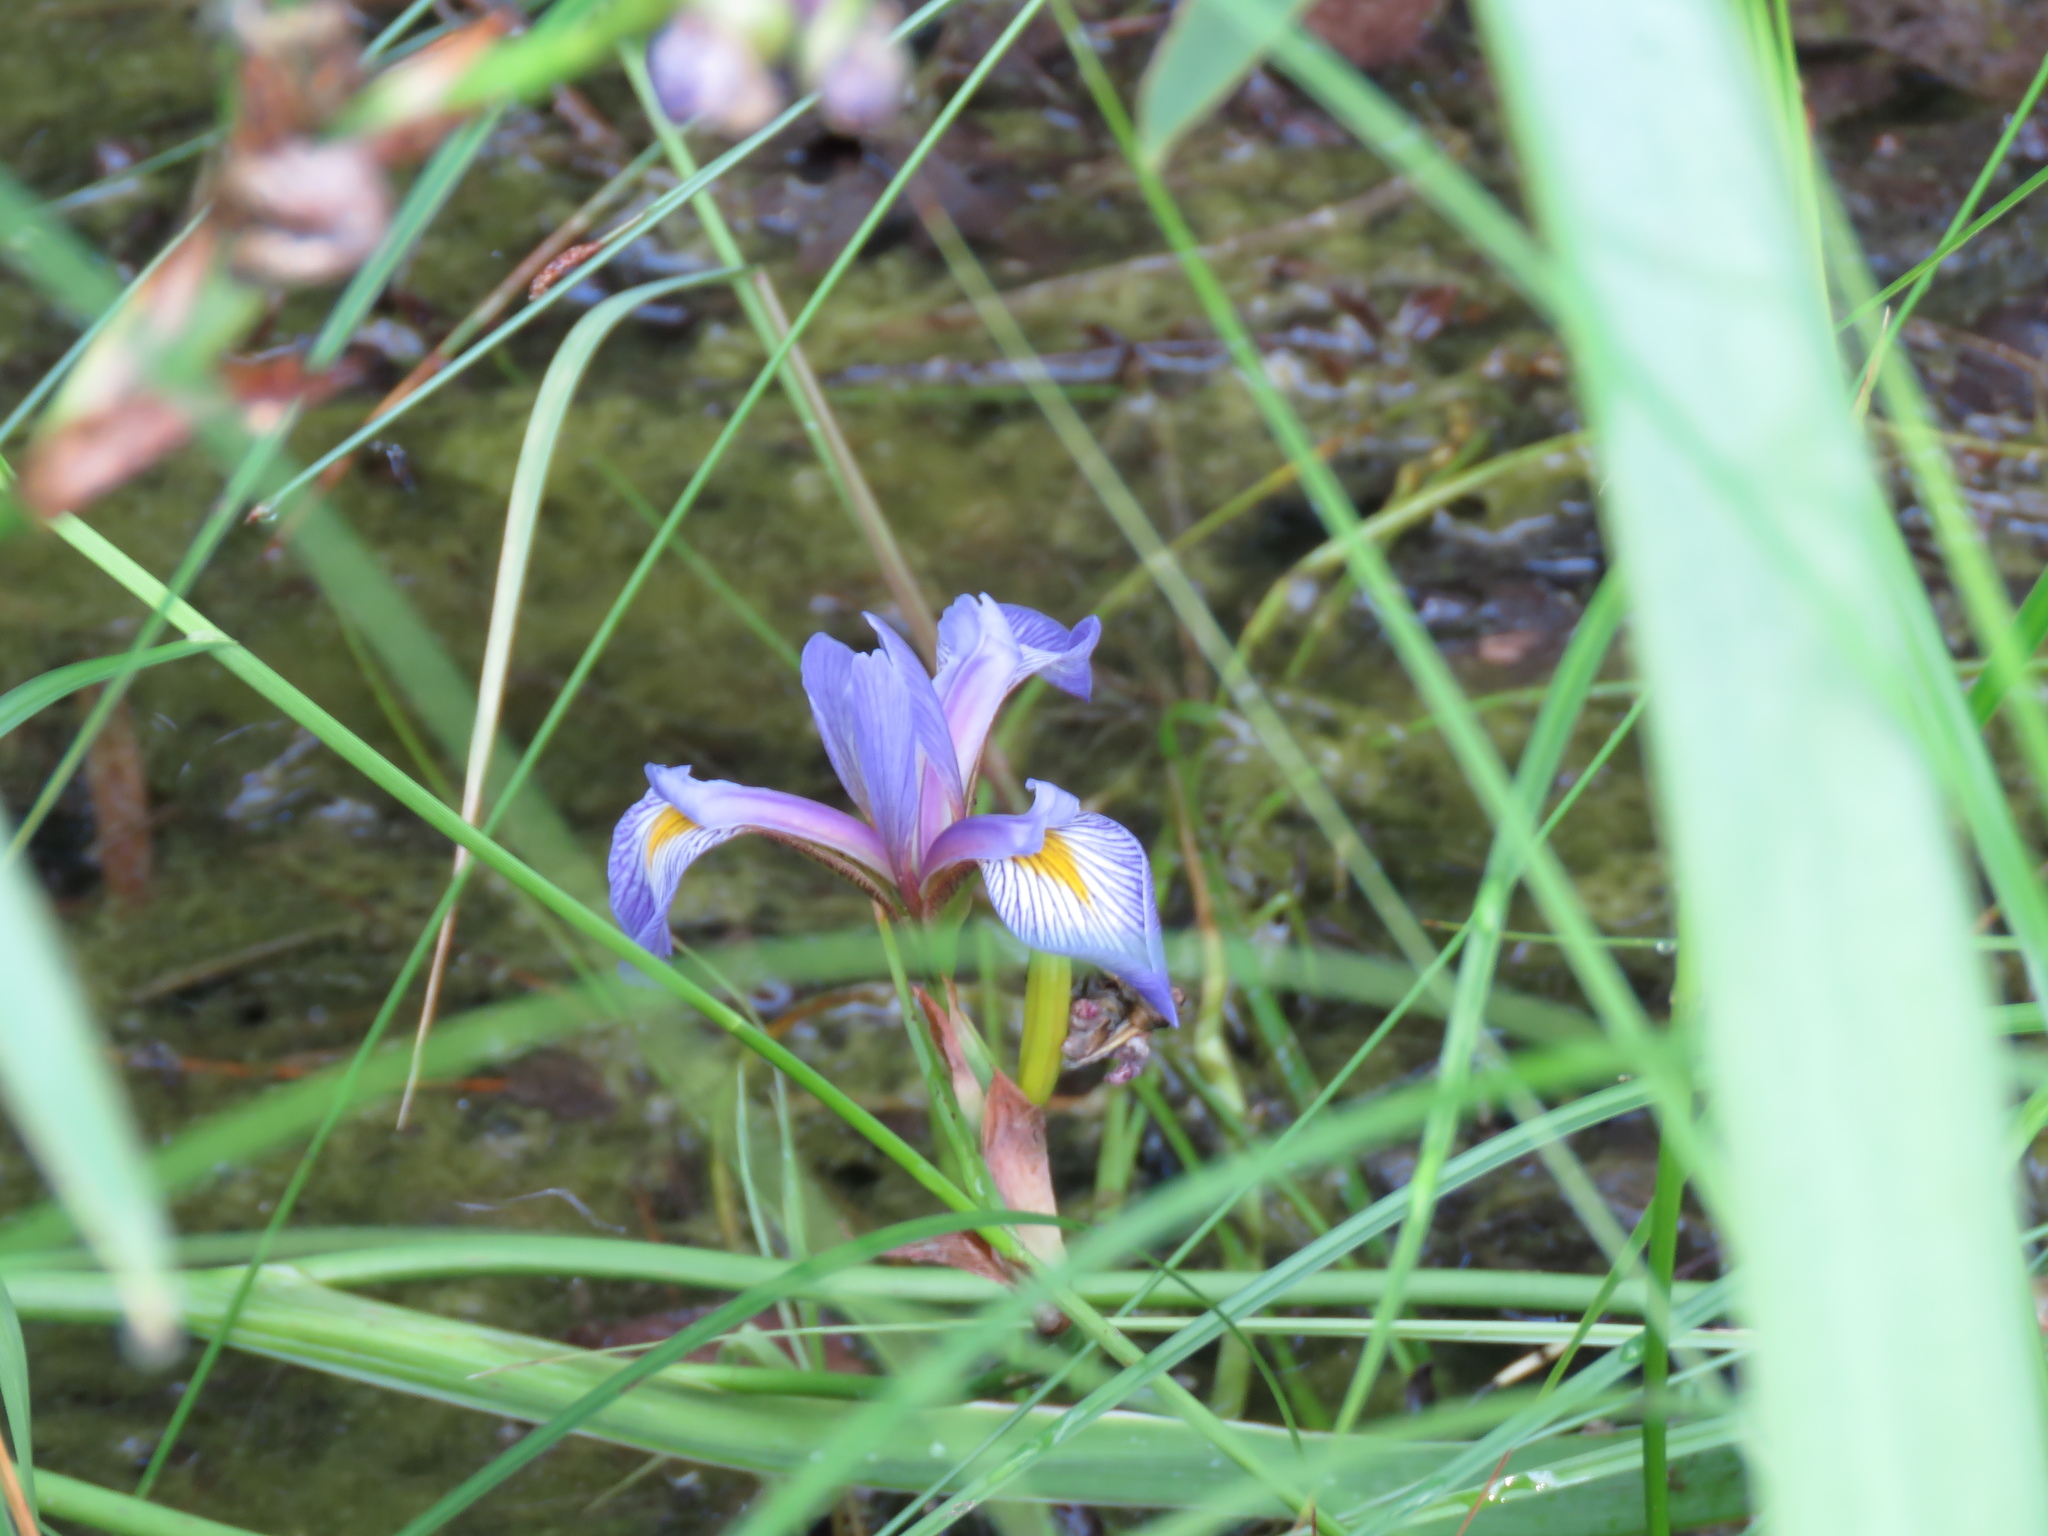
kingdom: Plantae
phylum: Tracheophyta
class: Liliopsida
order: Asparagales
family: Iridaceae
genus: Iris
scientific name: Iris virginica
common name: Southern blue flag
